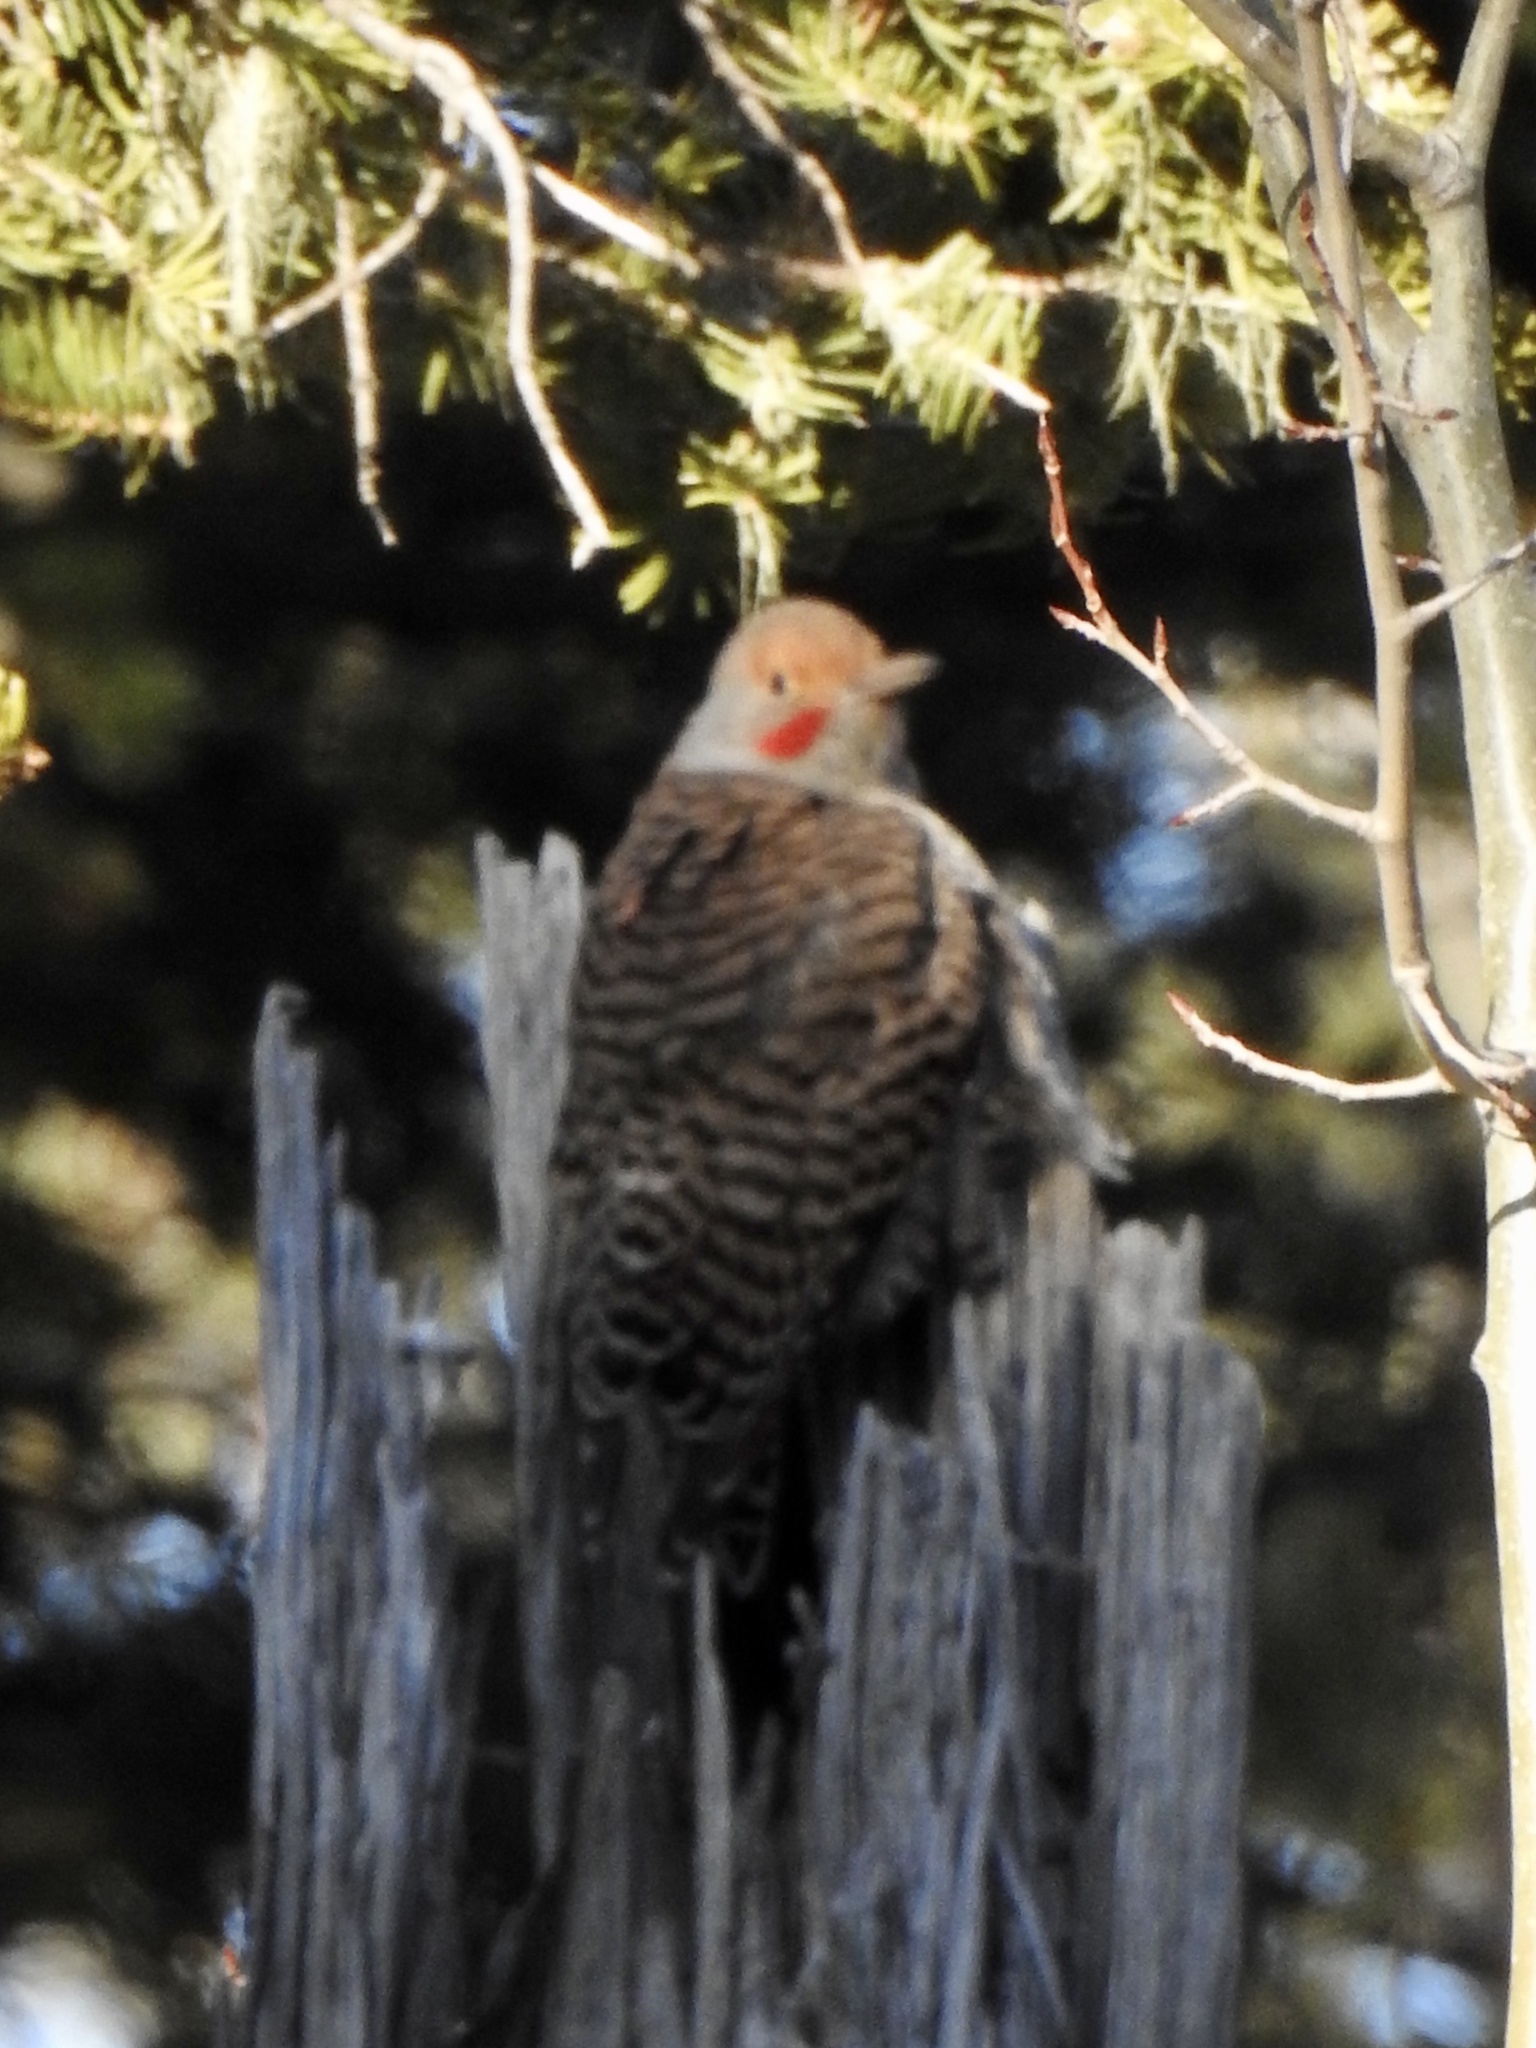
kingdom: Animalia
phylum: Chordata
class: Aves
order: Piciformes
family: Picidae
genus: Colaptes
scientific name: Colaptes auratus
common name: Northern flicker
